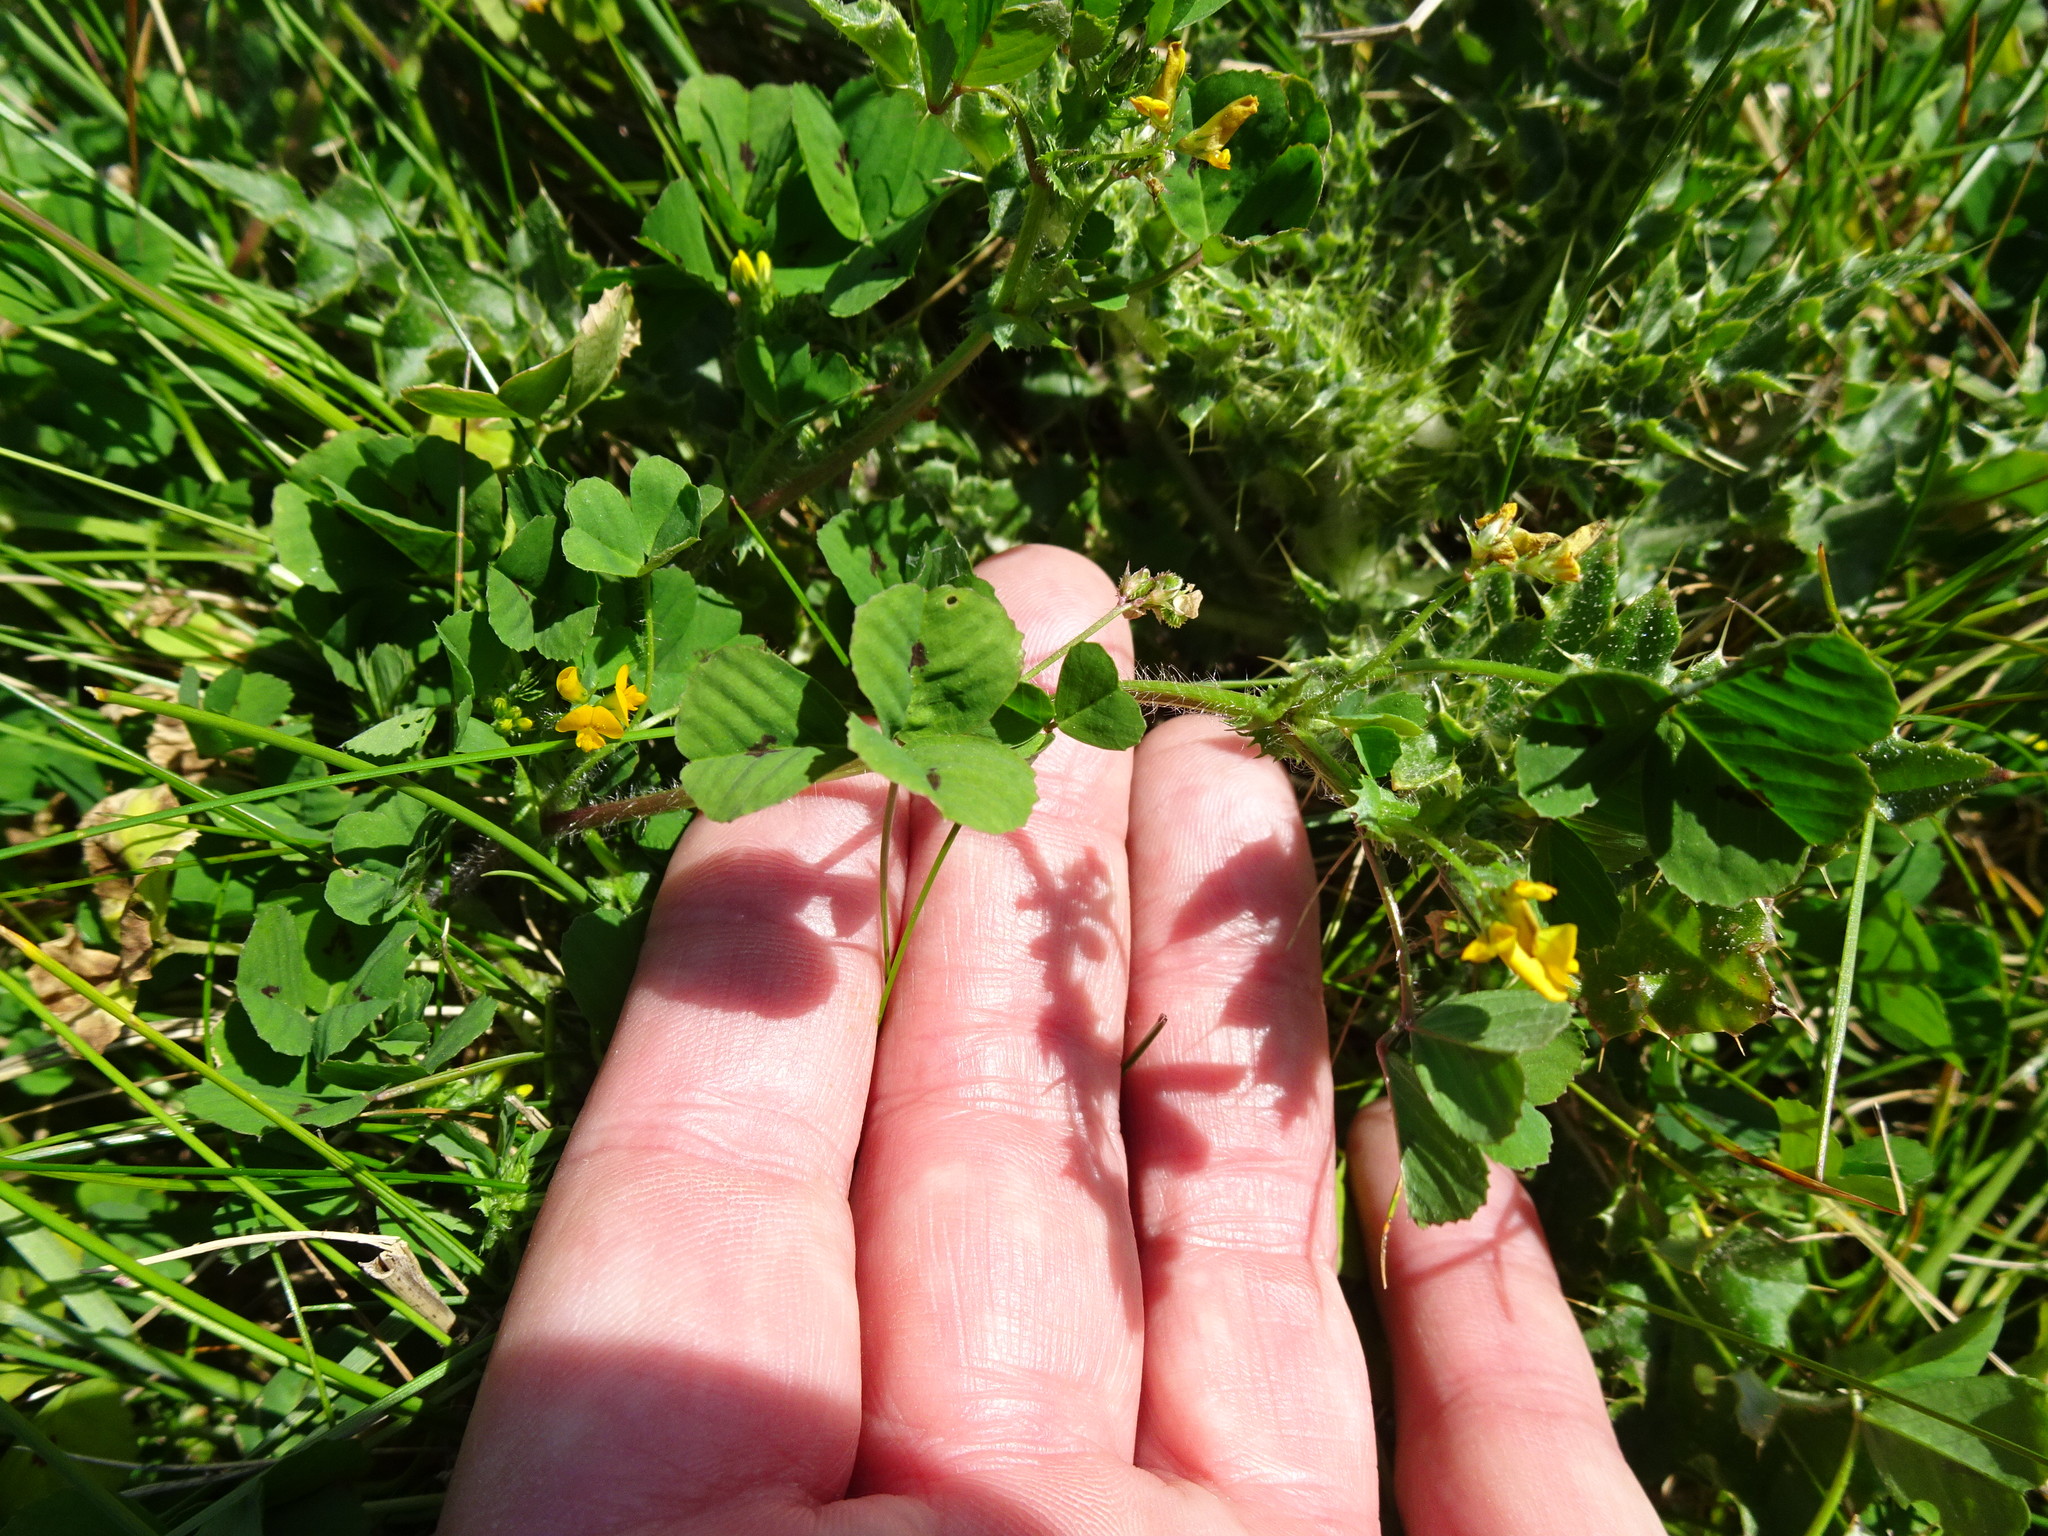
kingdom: Plantae
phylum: Tracheophyta
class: Magnoliopsida
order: Fabales
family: Fabaceae
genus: Medicago
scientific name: Medicago arabica
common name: Spotted medick
